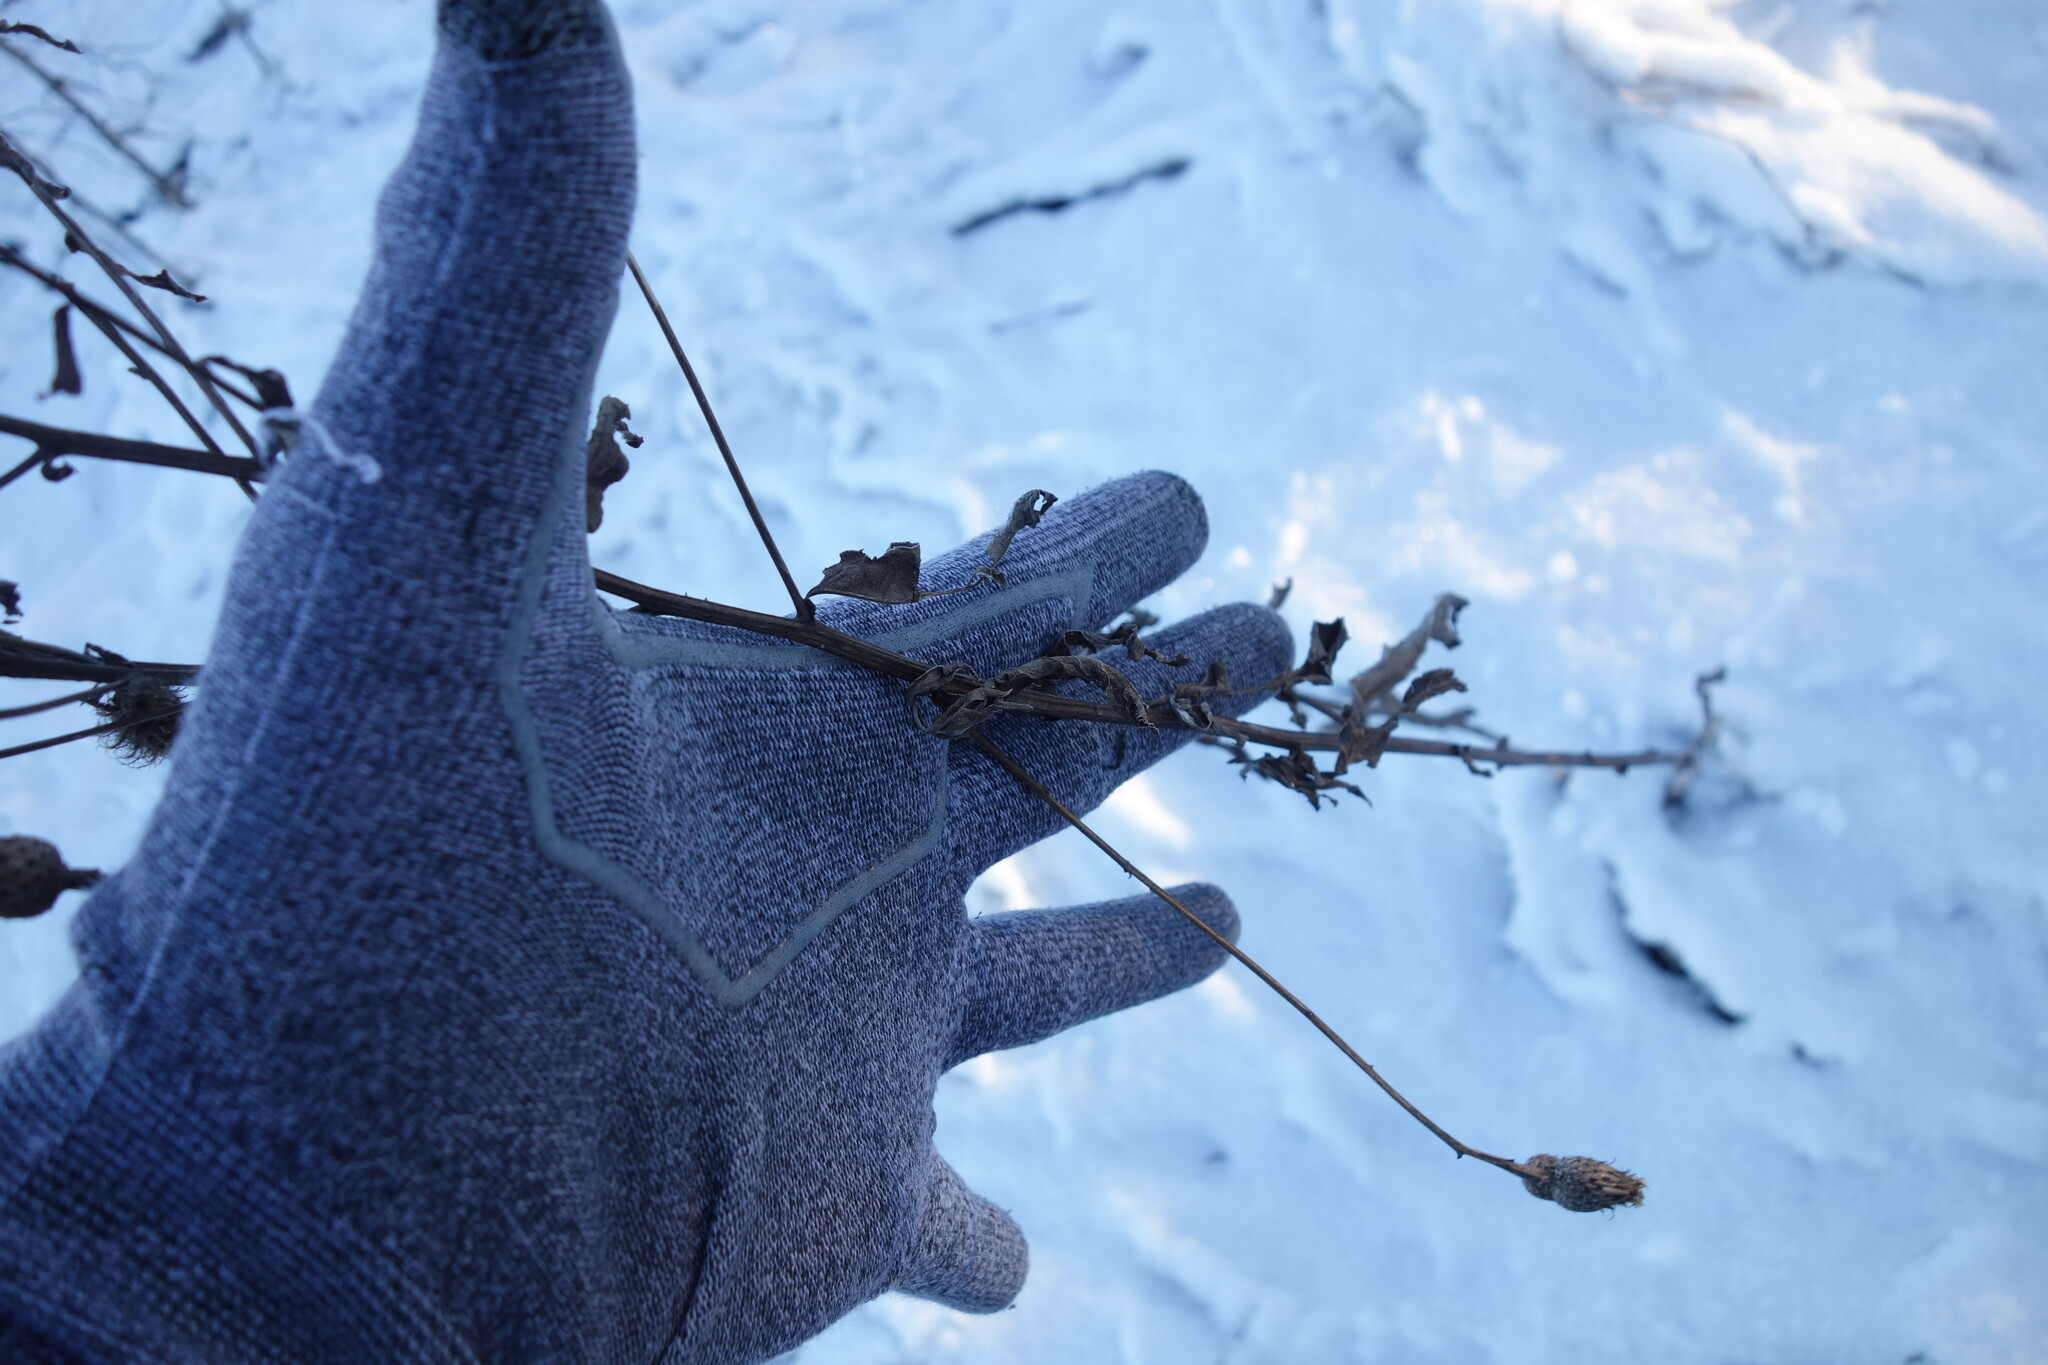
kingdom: Plantae
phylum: Tracheophyta
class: Magnoliopsida
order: Asterales
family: Asteraceae
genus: Centaurea
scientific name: Centaurea pseudophrygia
